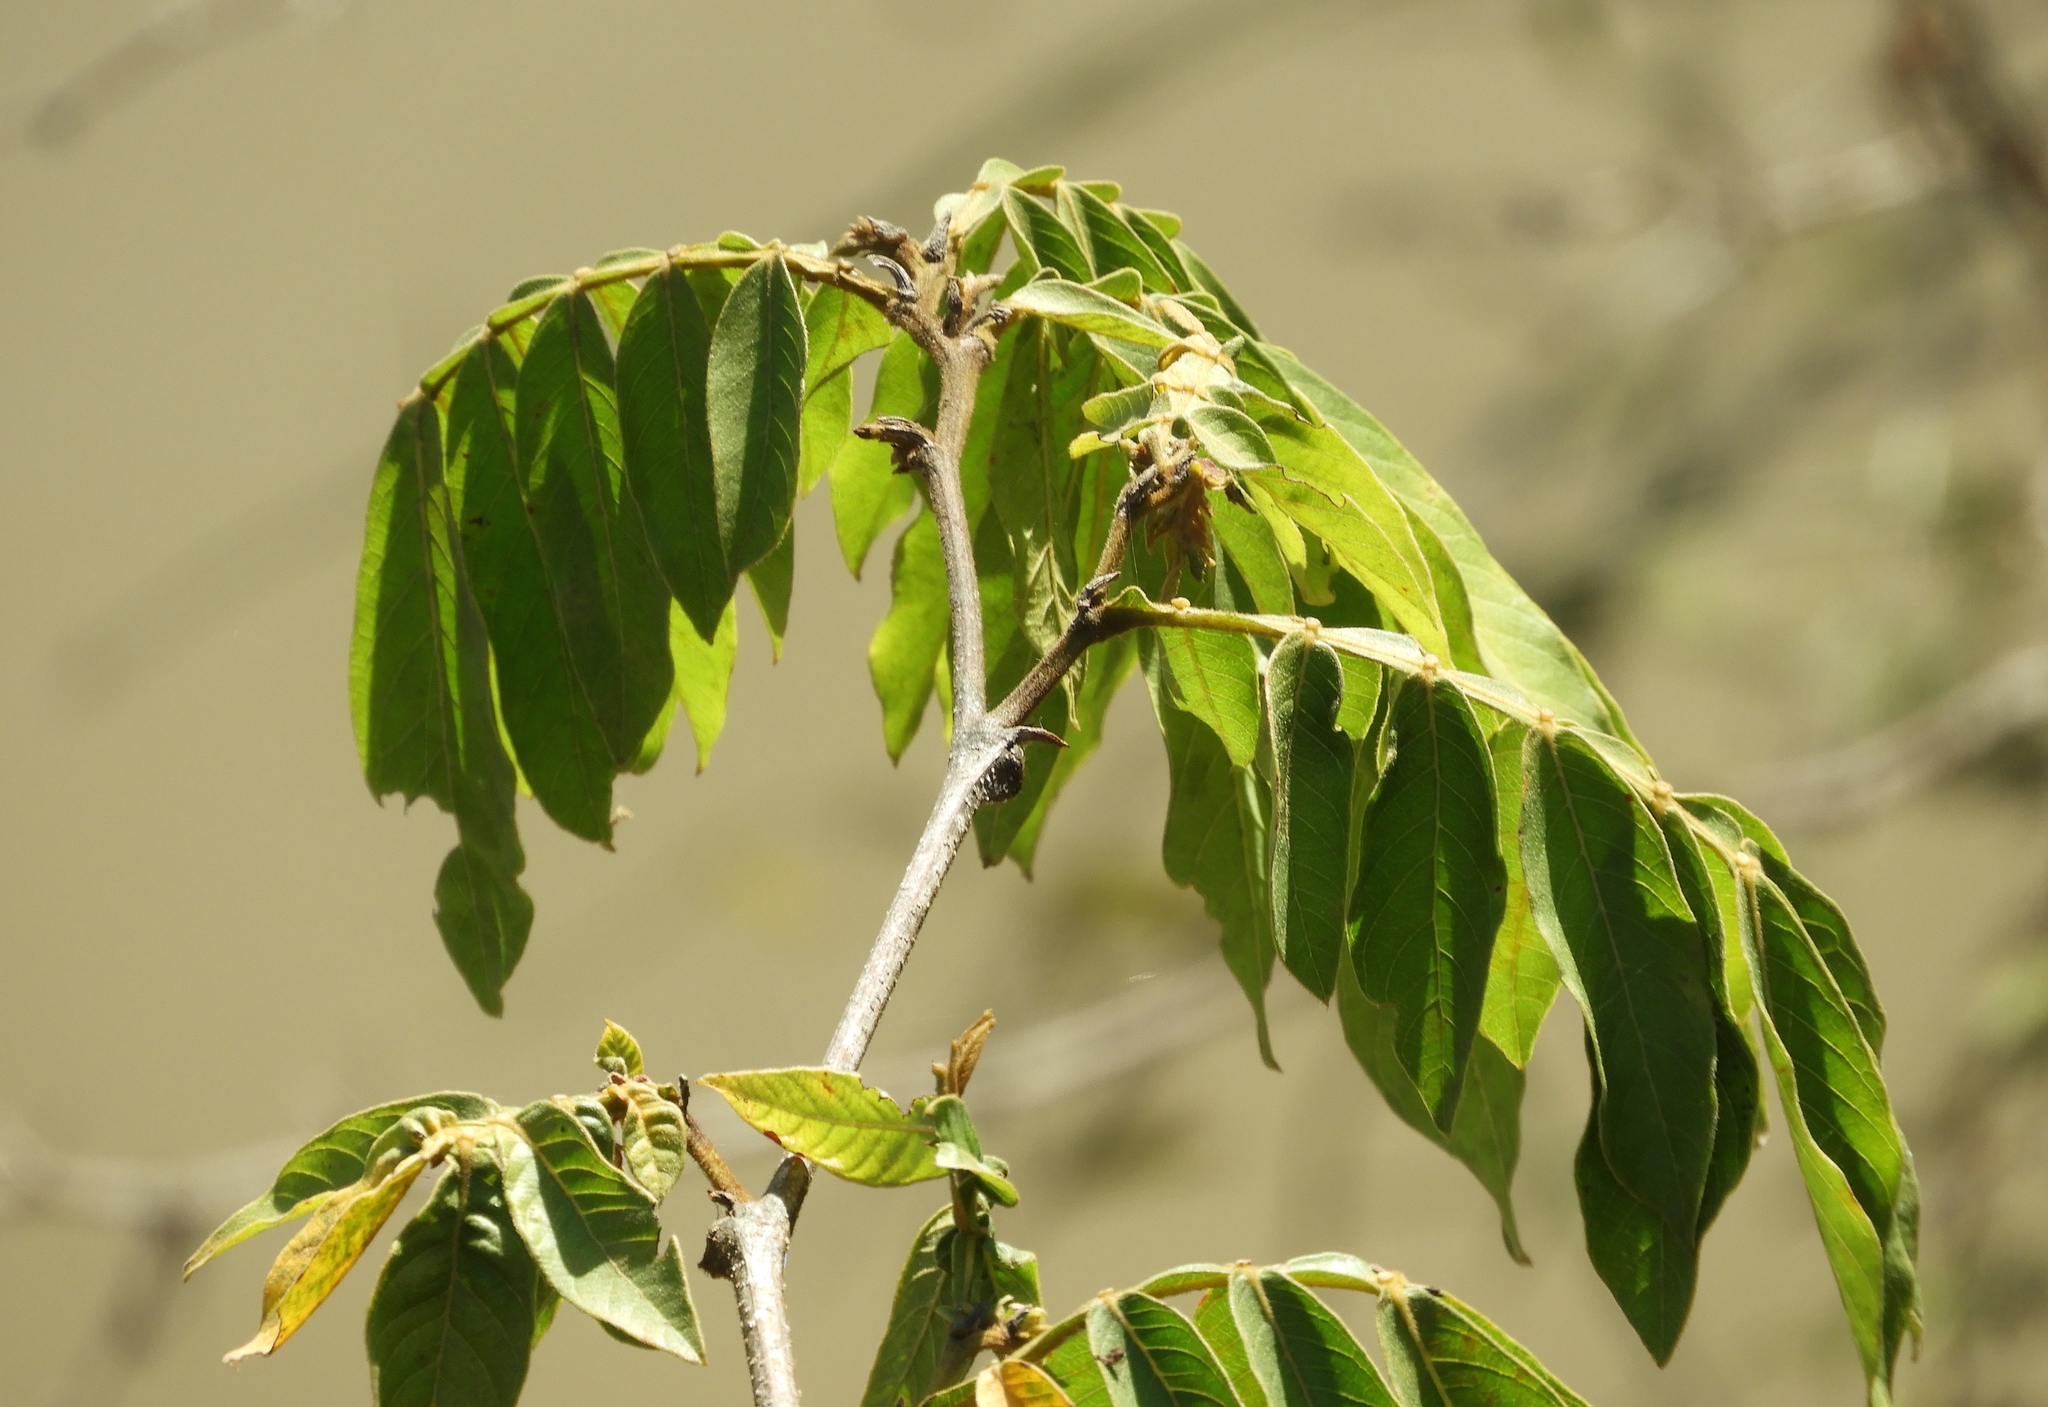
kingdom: Plantae
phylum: Tracheophyta
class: Magnoliopsida
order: Fabales
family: Fabaceae
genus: Inga
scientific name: Inga vera
